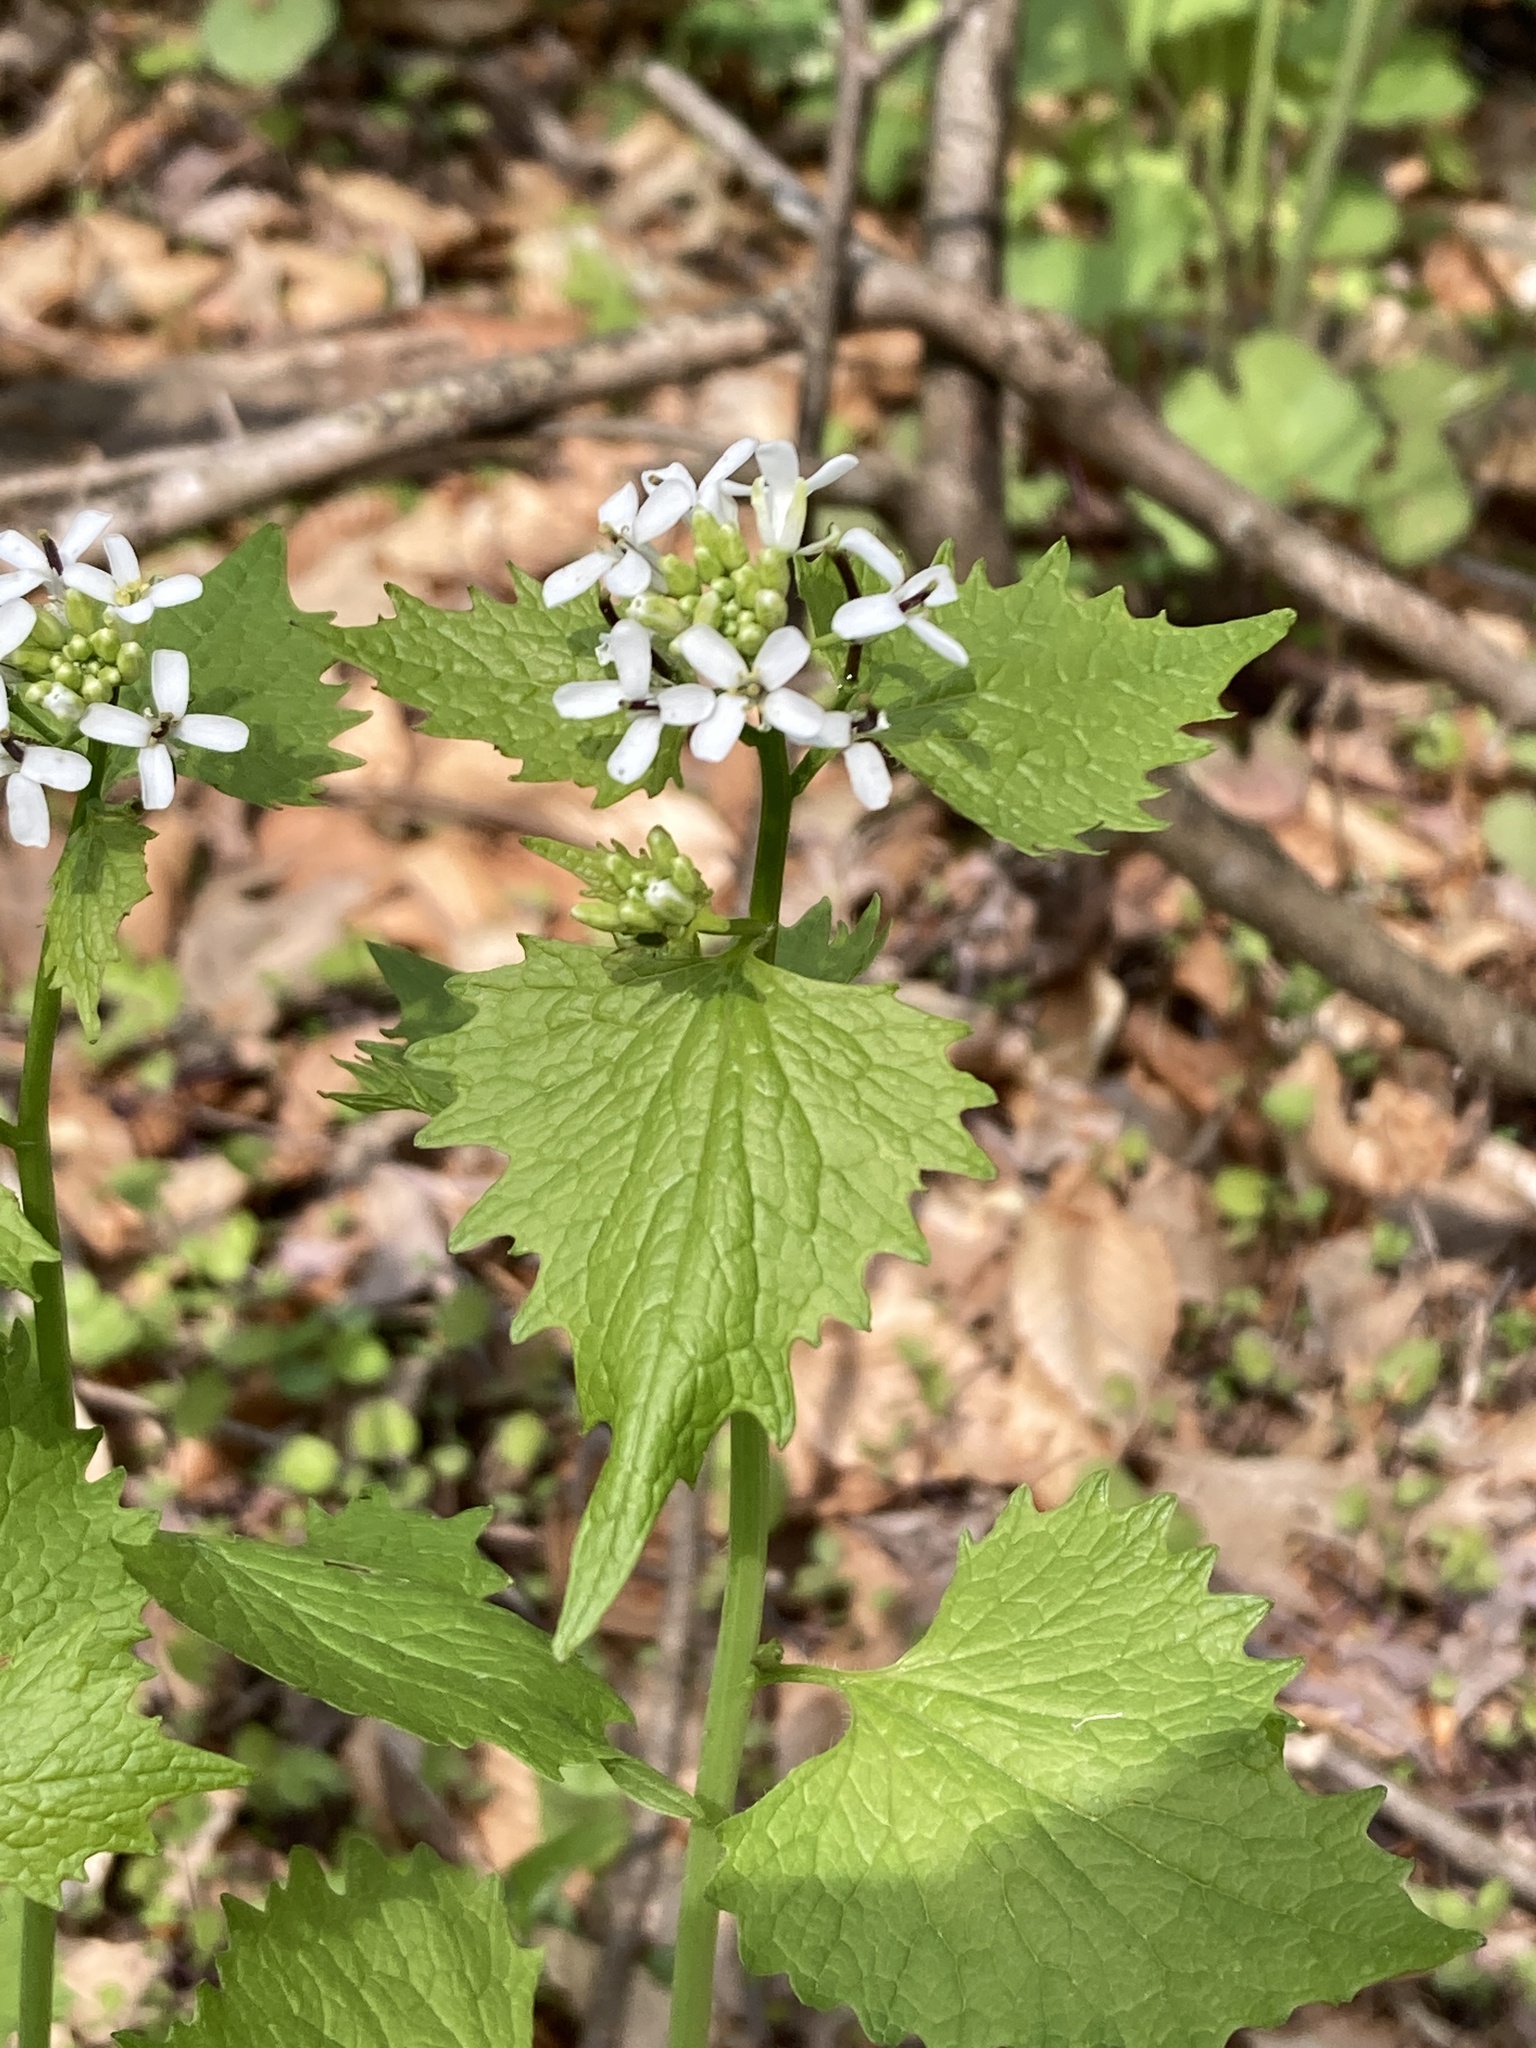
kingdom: Plantae
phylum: Tracheophyta
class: Magnoliopsida
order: Brassicales
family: Brassicaceae
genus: Alliaria
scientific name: Alliaria petiolata
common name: Garlic mustard
